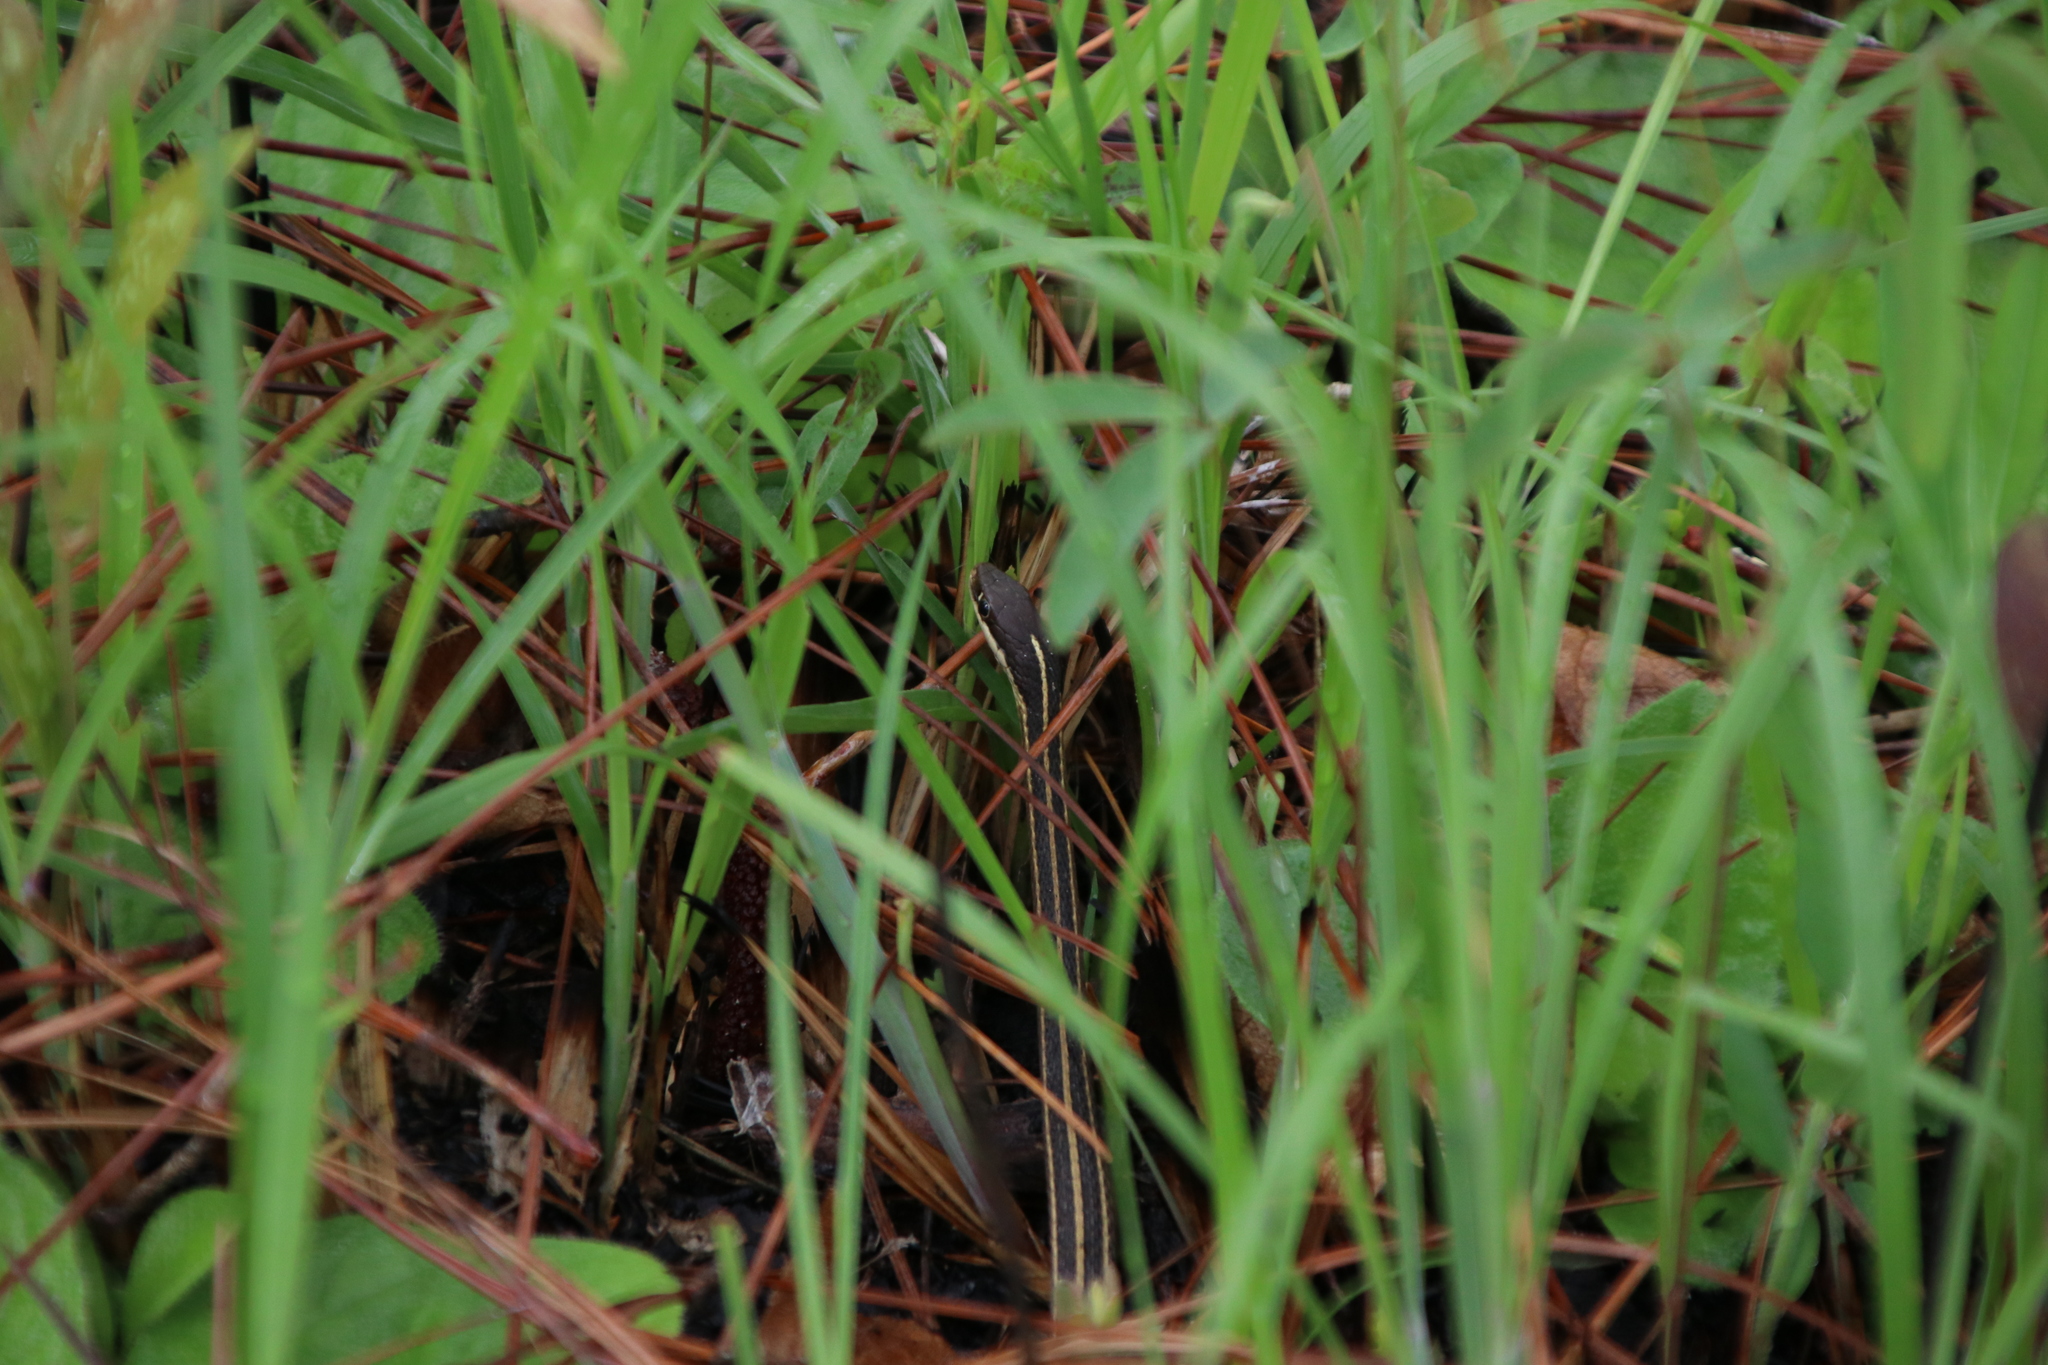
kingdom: Animalia
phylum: Chordata
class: Squamata
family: Colubridae
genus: Thamnophis
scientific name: Thamnophis saurita
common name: Eastern ribbonsnake
